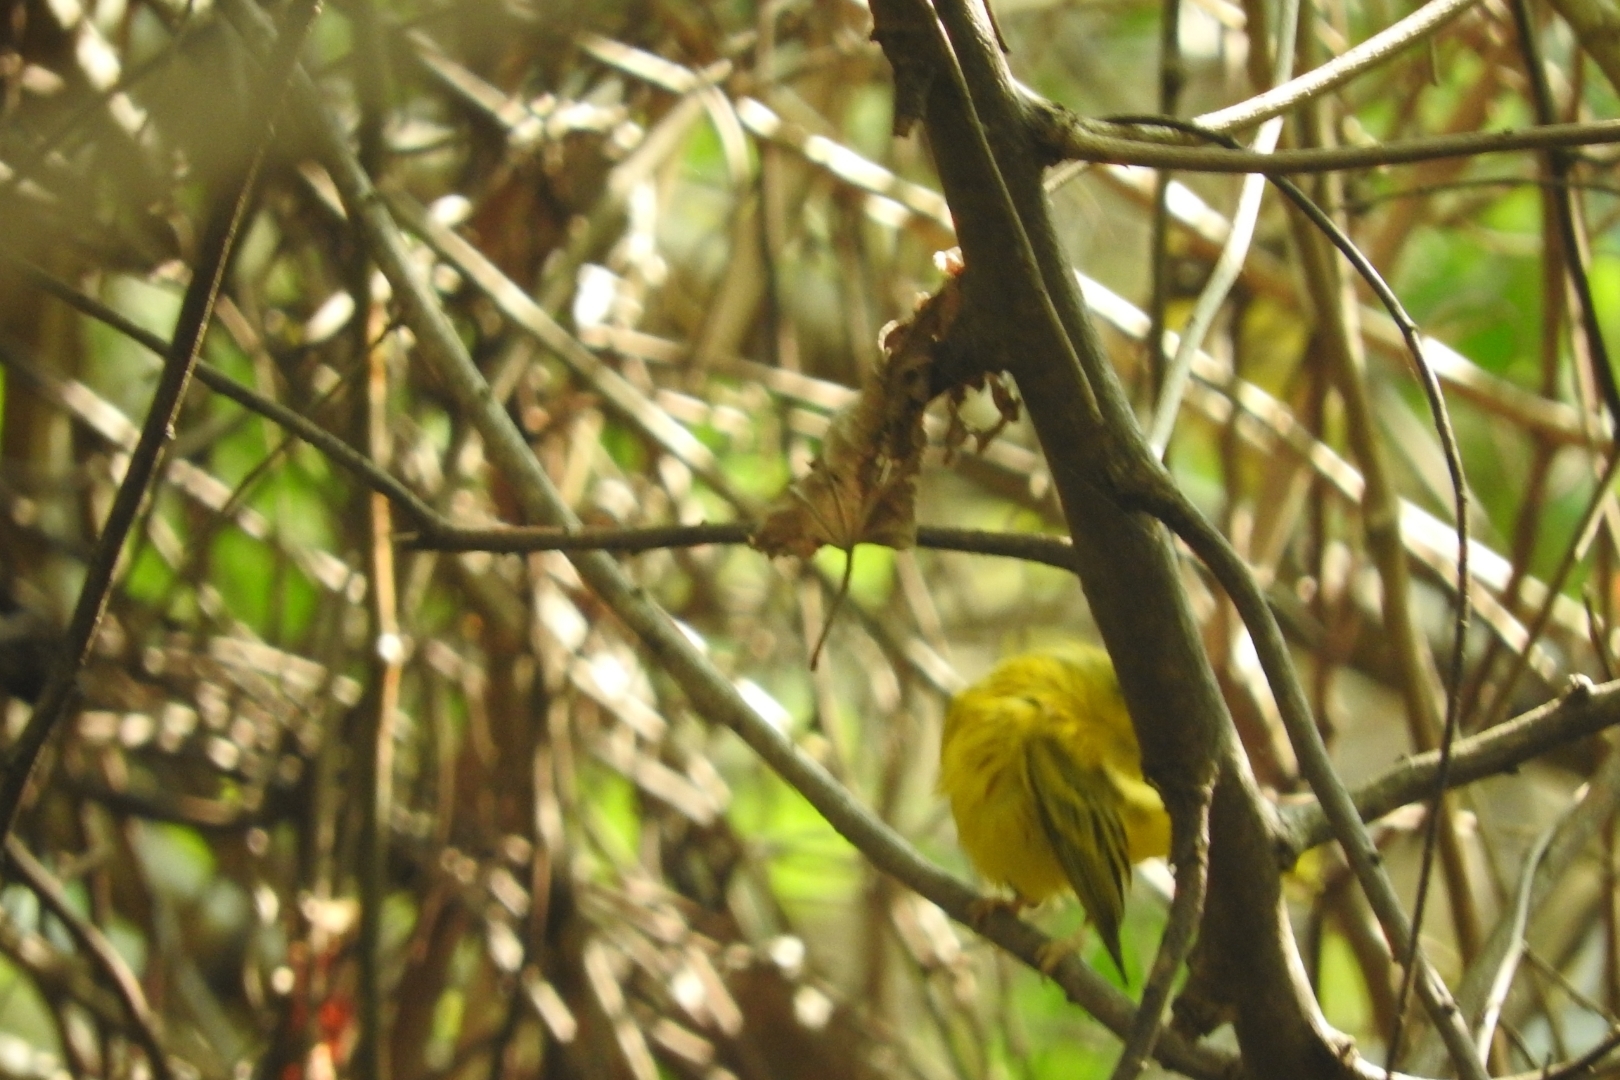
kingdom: Animalia
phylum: Chordata
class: Aves
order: Passeriformes
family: Parulidae
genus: Setophaga
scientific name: Setophaga petechia
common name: Yellow warbler
